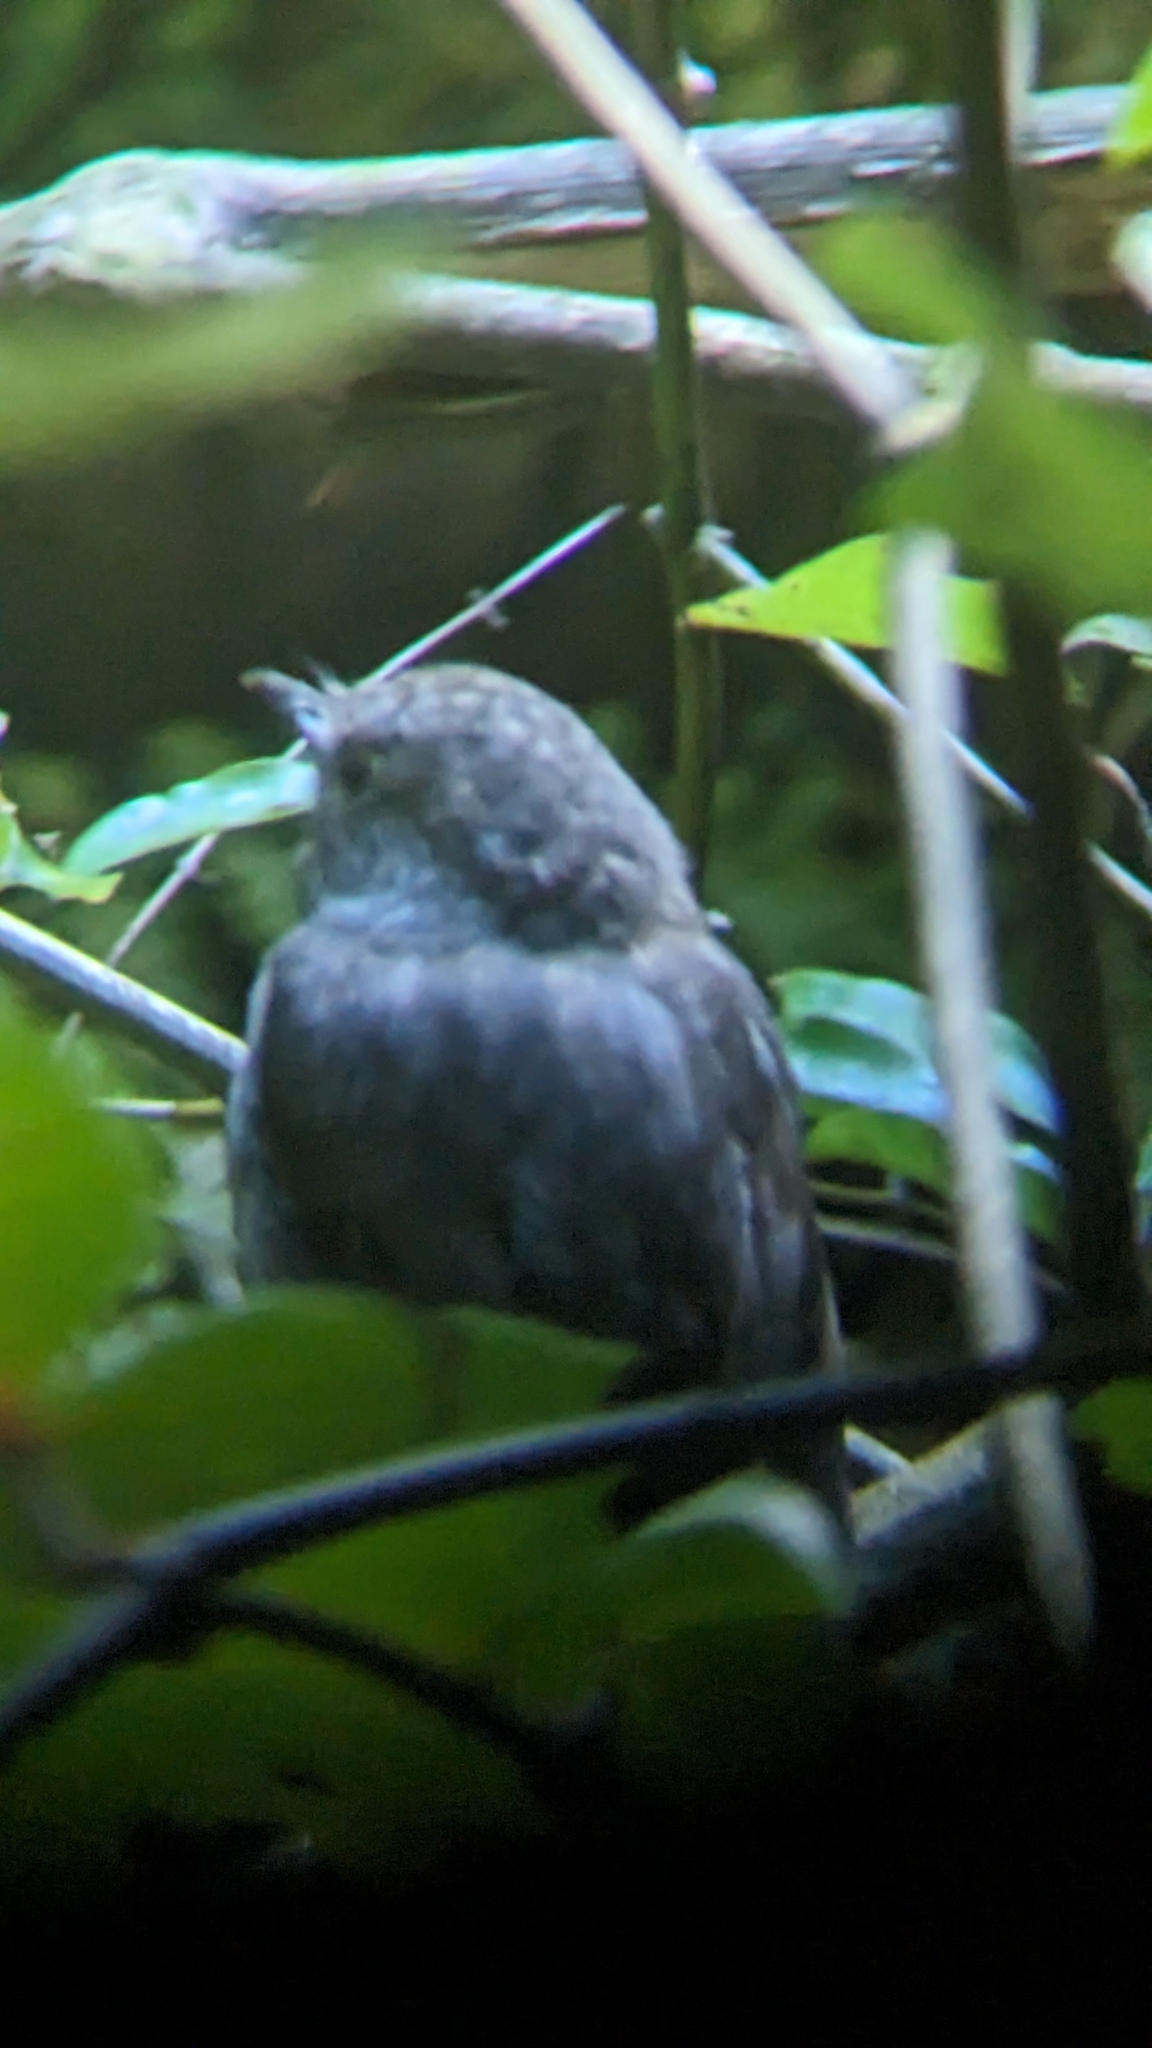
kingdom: Animalia
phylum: Chordata
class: Aves
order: Passeriformes
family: Petroicidae
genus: Petroica
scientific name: Petroica australis
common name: New zealand robin
